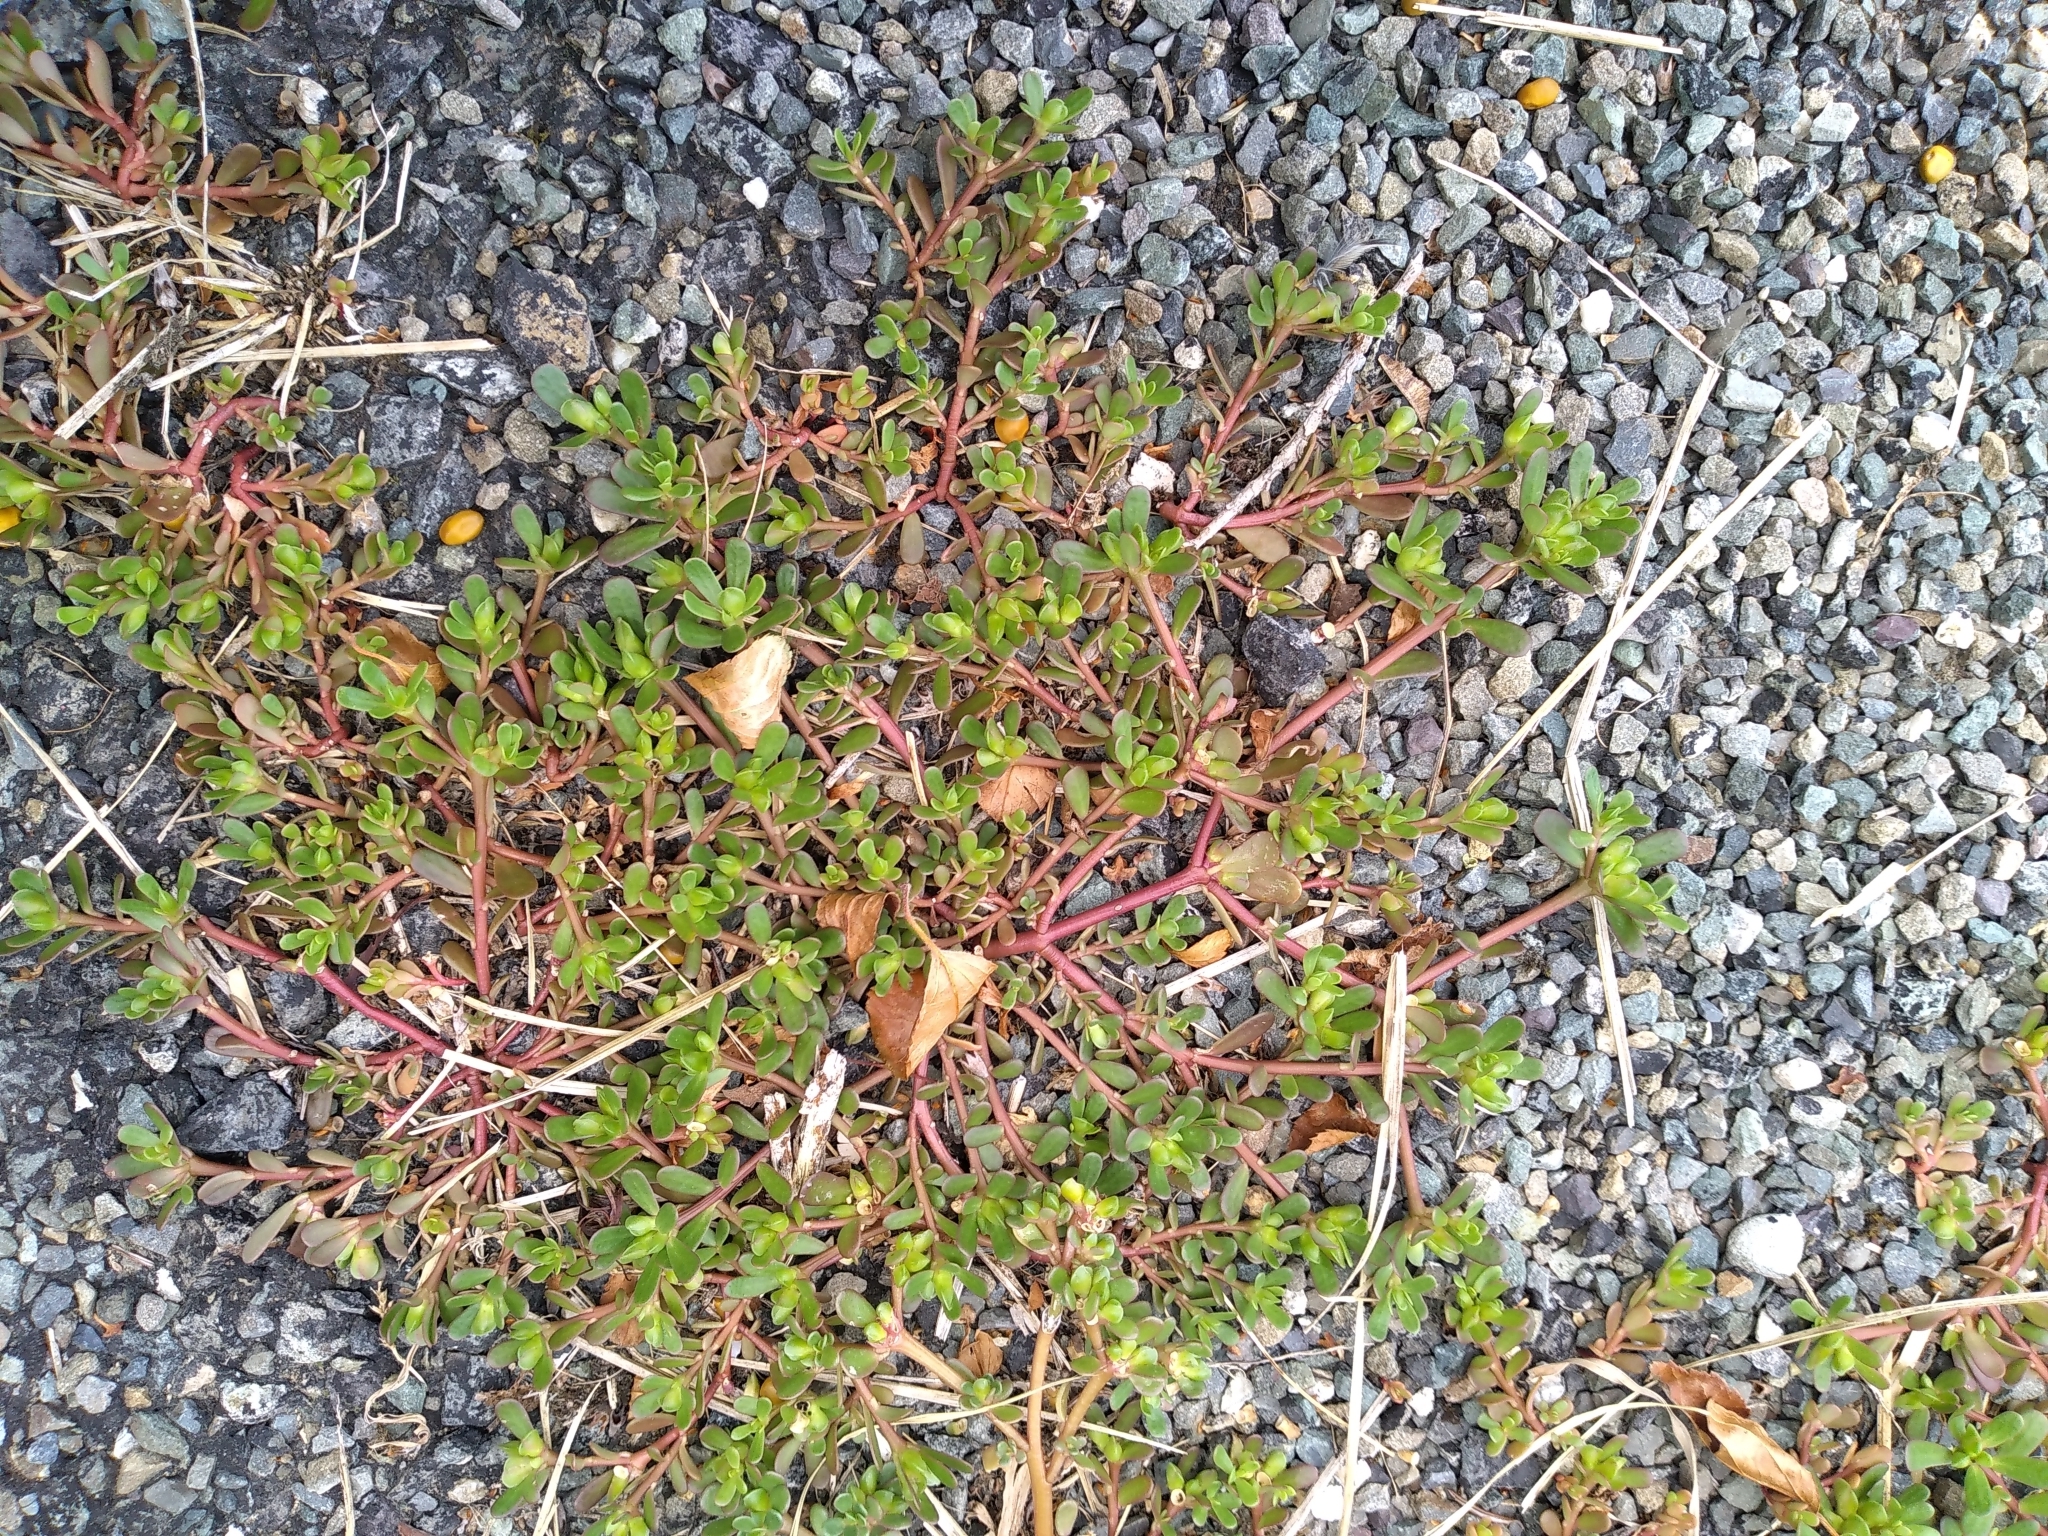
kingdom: Plantae
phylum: Tracheophyta
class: Magnoliopsida
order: Caryophyllales
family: Portulacaceae
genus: Portulaca
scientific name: Portulaca oleracea
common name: Common purslane
